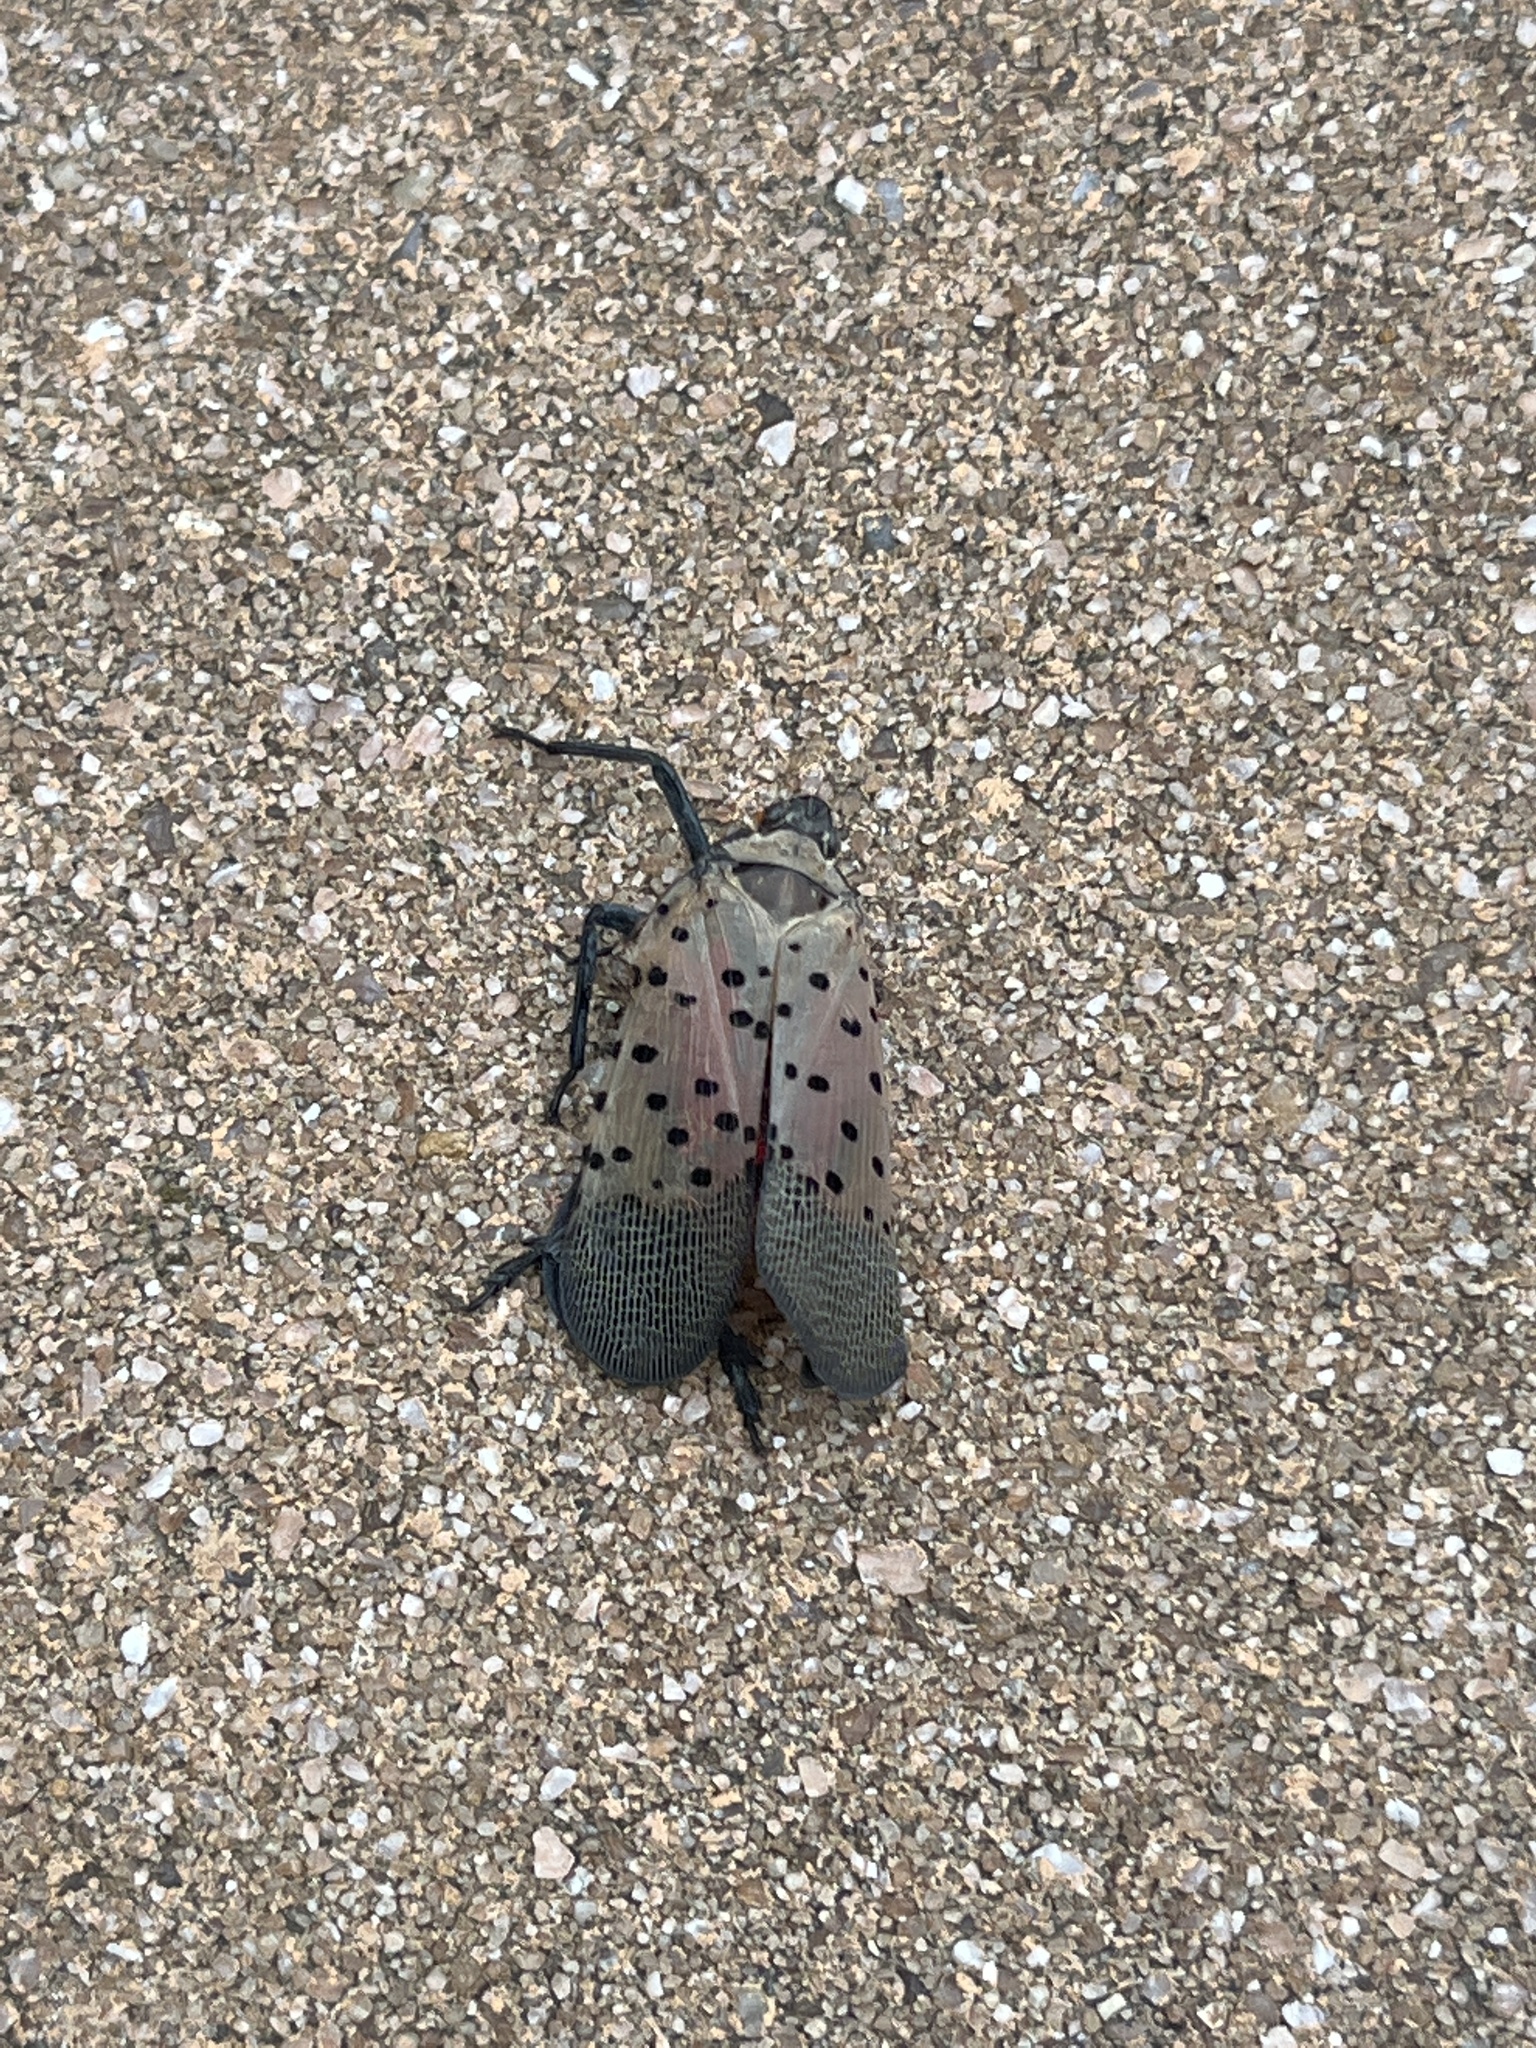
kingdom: Animalia
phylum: Arthropoda
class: Insecta
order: Hemiptera
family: Fulgoridae
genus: Lycorma
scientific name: Lycorma delicatula
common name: Spotted lanternfly
